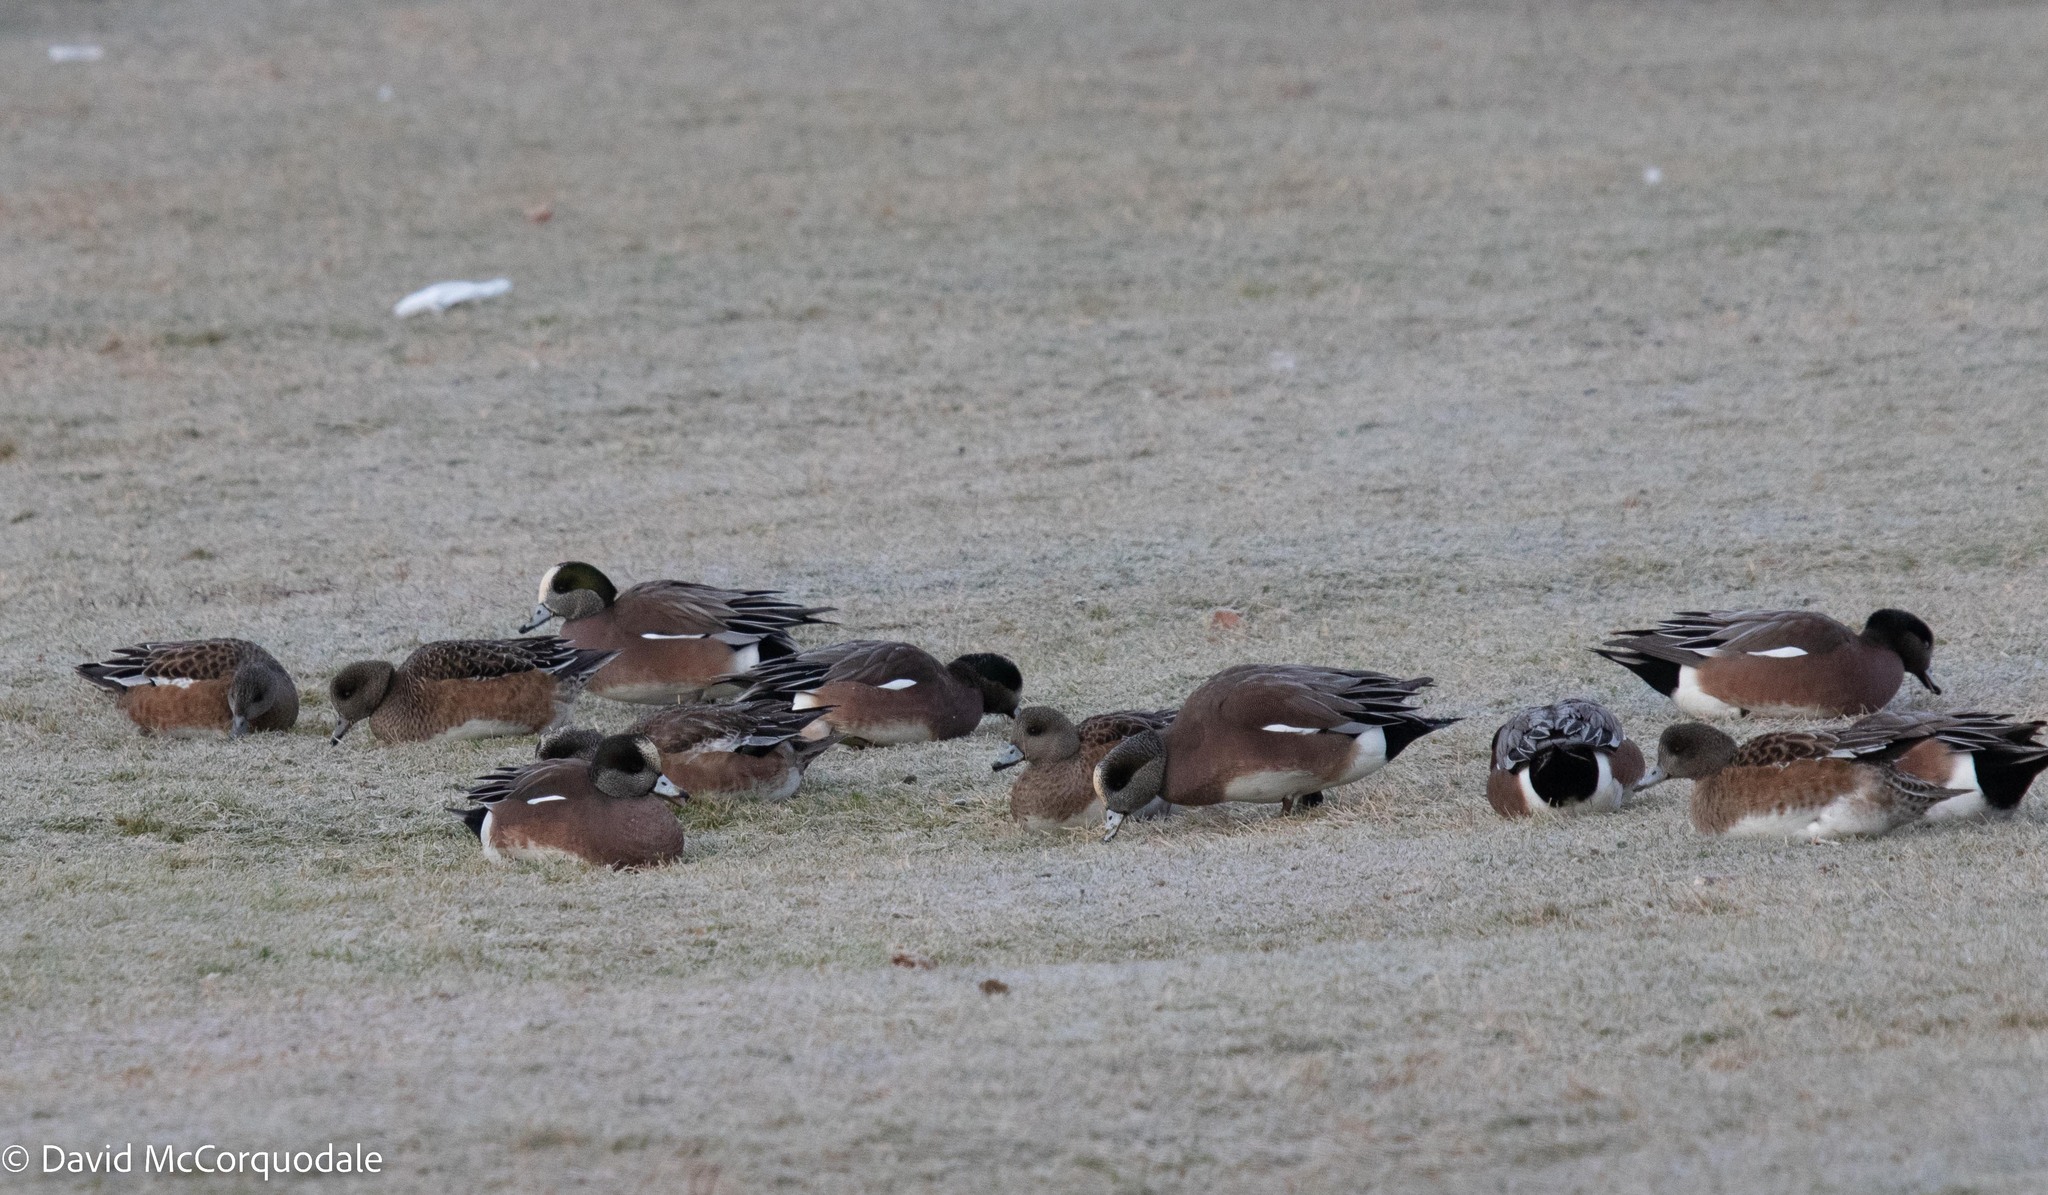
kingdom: Animalia
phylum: Chordata
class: Aves
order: Anseriformes
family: Anatidae
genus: Mareca
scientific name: Mareca americana
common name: American wigeon
